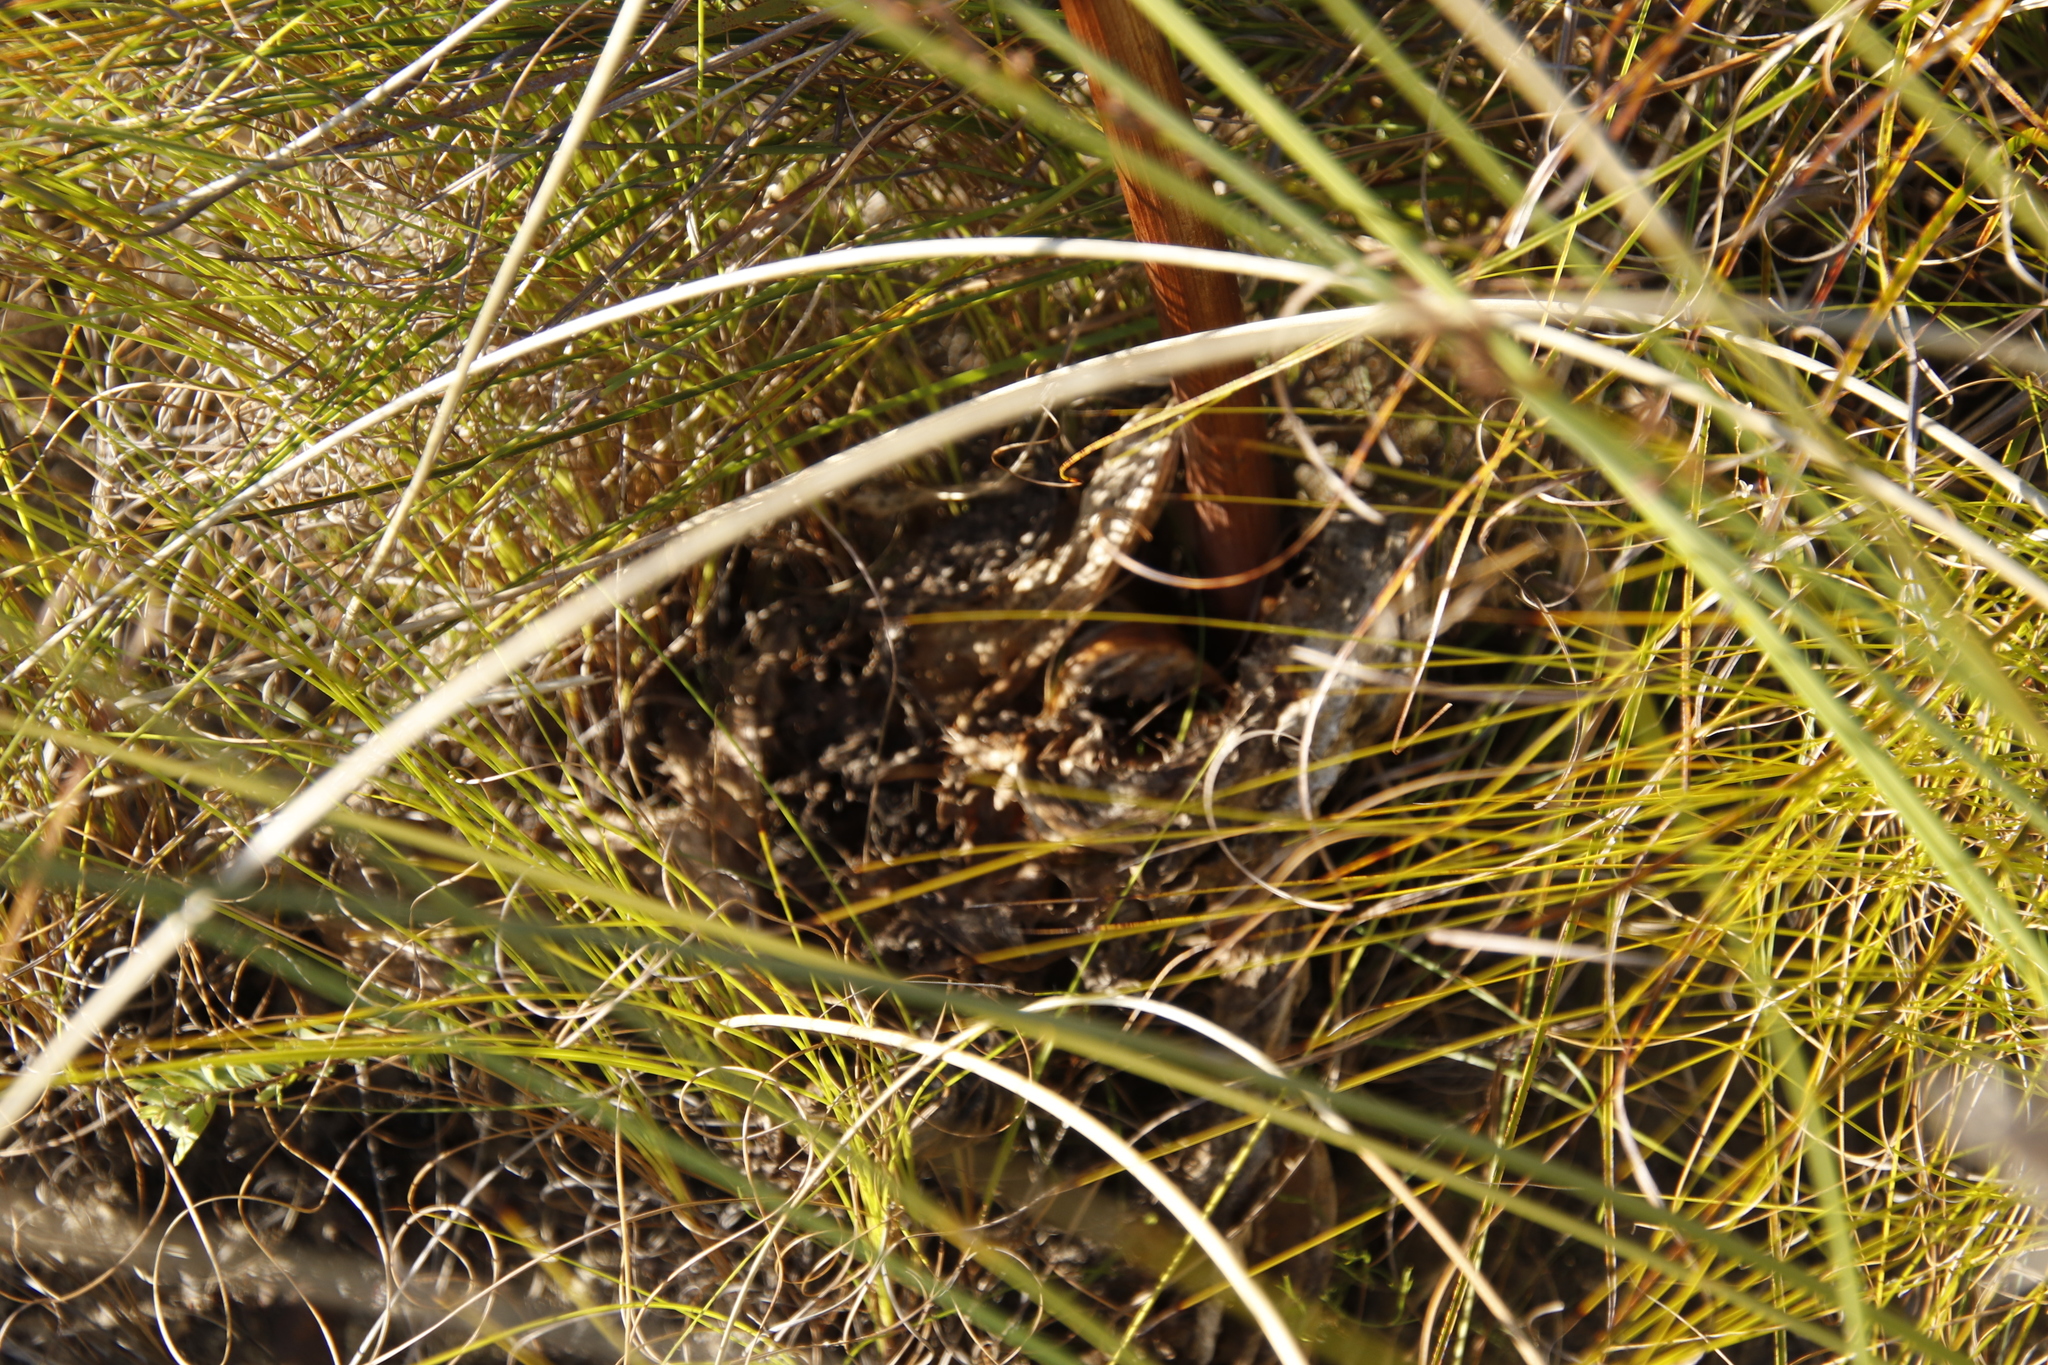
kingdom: Plantae
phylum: Tracheophyta
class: Magnoliopsida
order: Apiales
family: Apiaceae
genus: Lichtensteinia
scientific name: Lichtensteinia lacera
